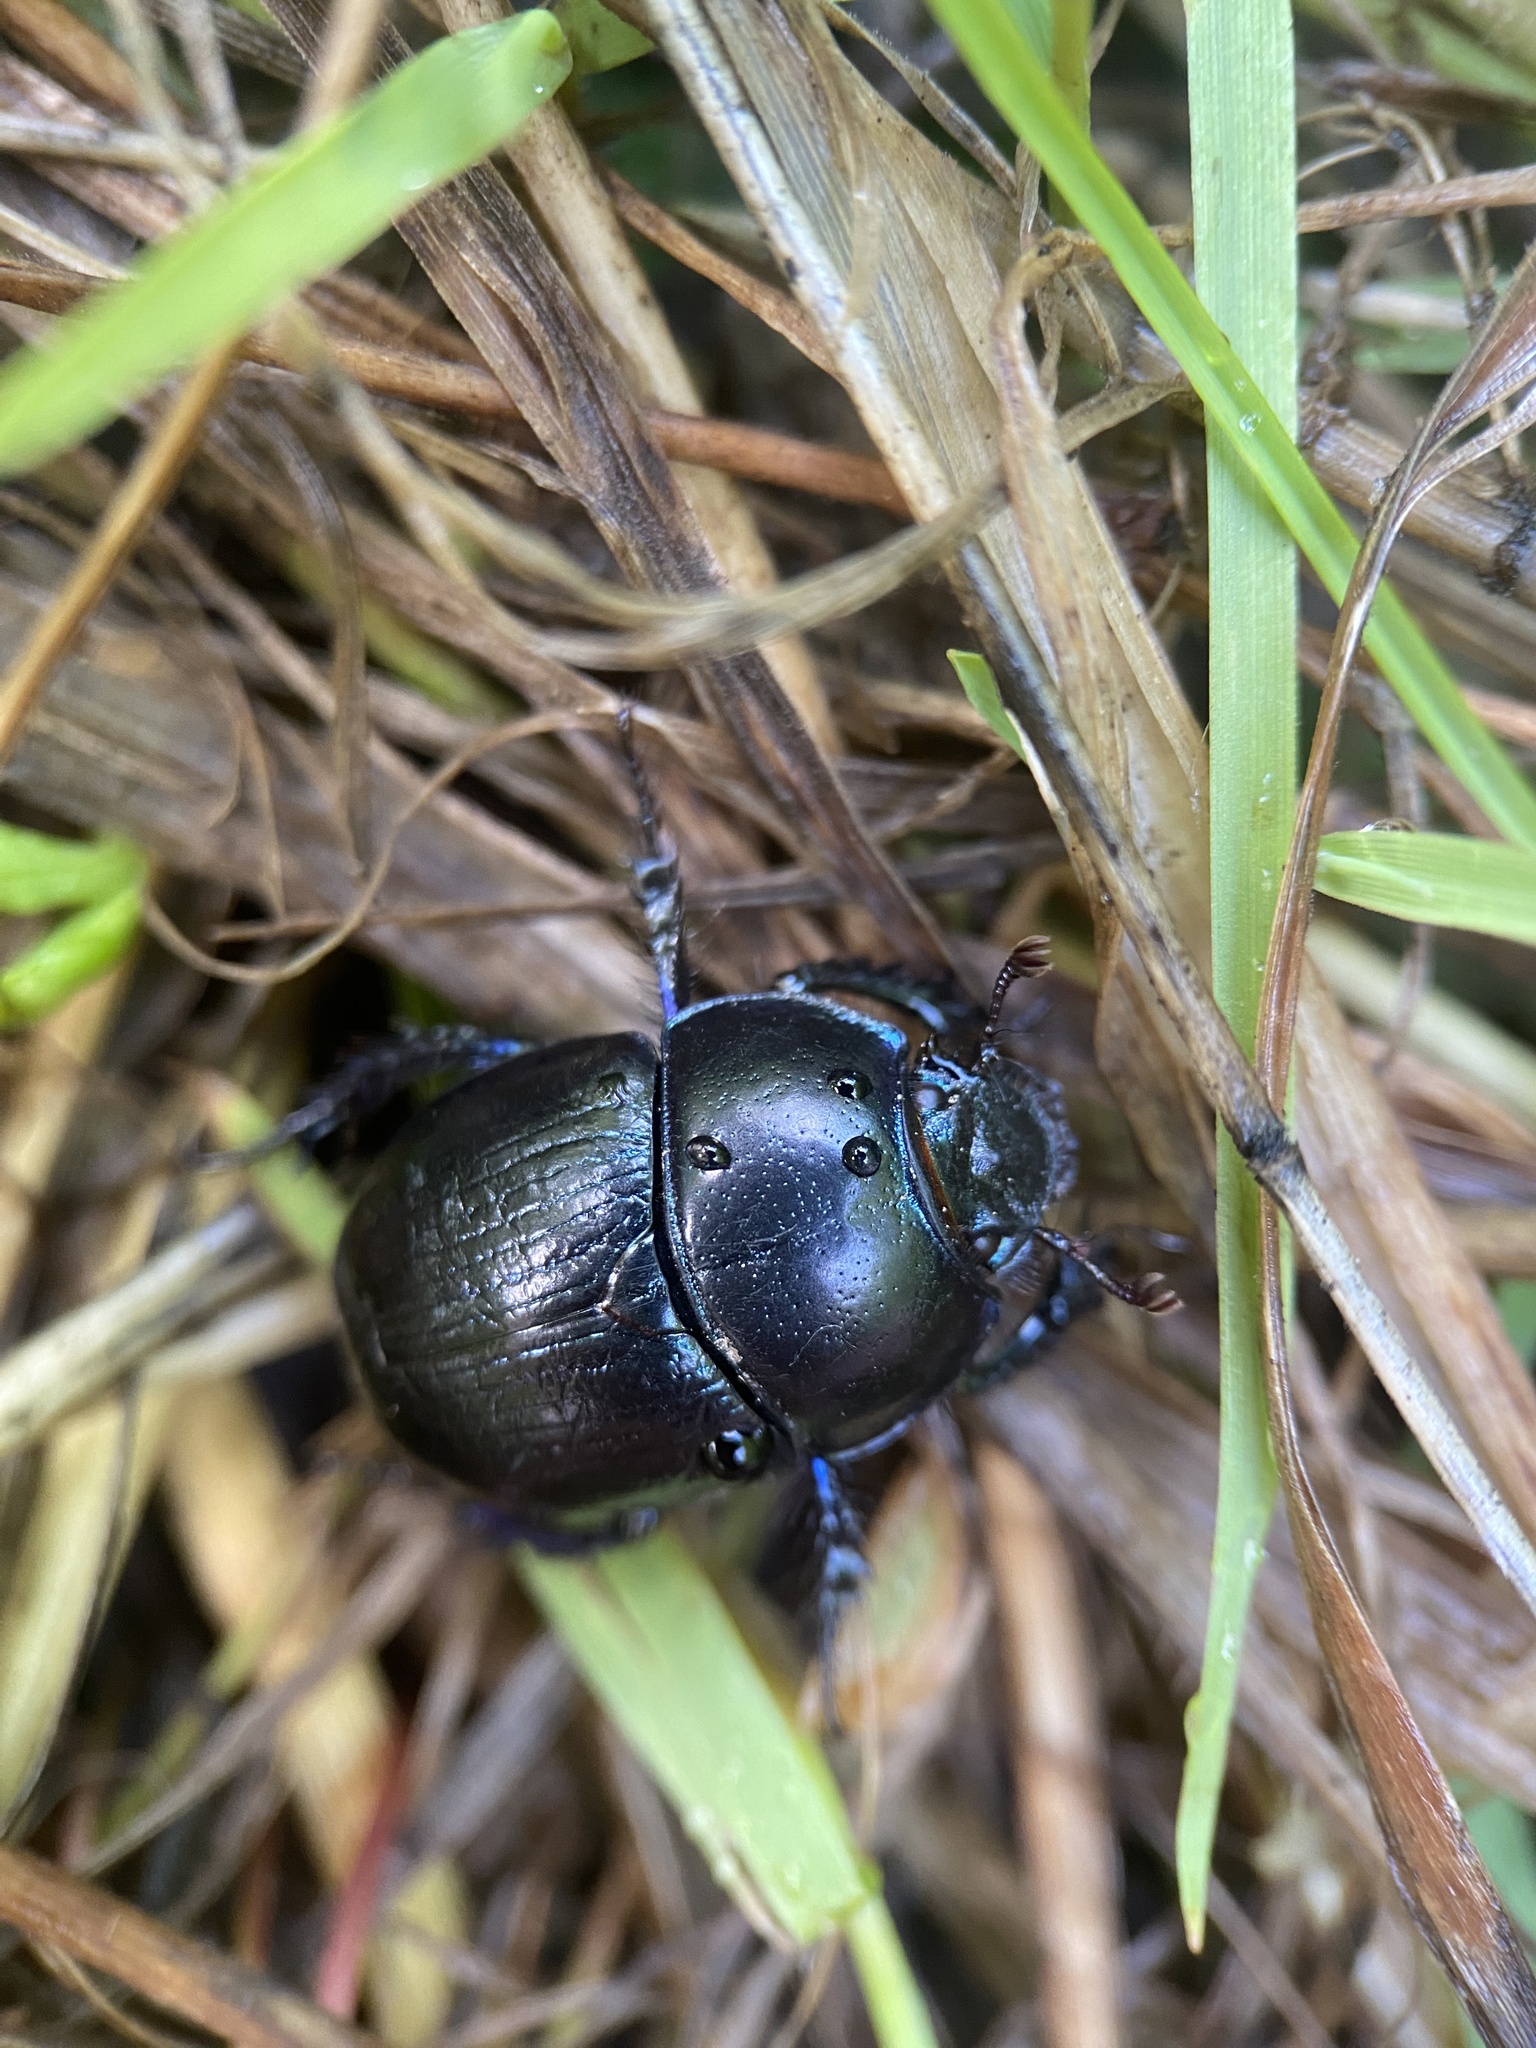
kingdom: Animalia
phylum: Arthropoda
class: Insecta
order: Coleoptera
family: Geotrupidae
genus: Anoplotrupes
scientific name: Anoplotrupes stercorosus
